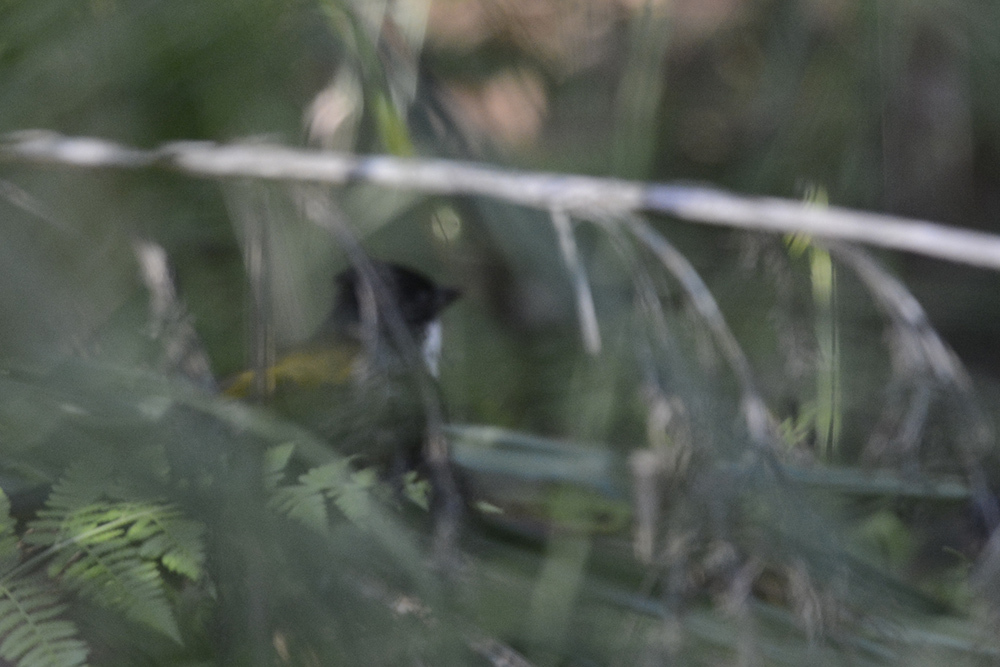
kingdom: Animalia
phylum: Chordata
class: Aves
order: Passeriformes
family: Psophodidae
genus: Psophodes
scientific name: Psophodes olivaceus
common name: Eastern whipbird
